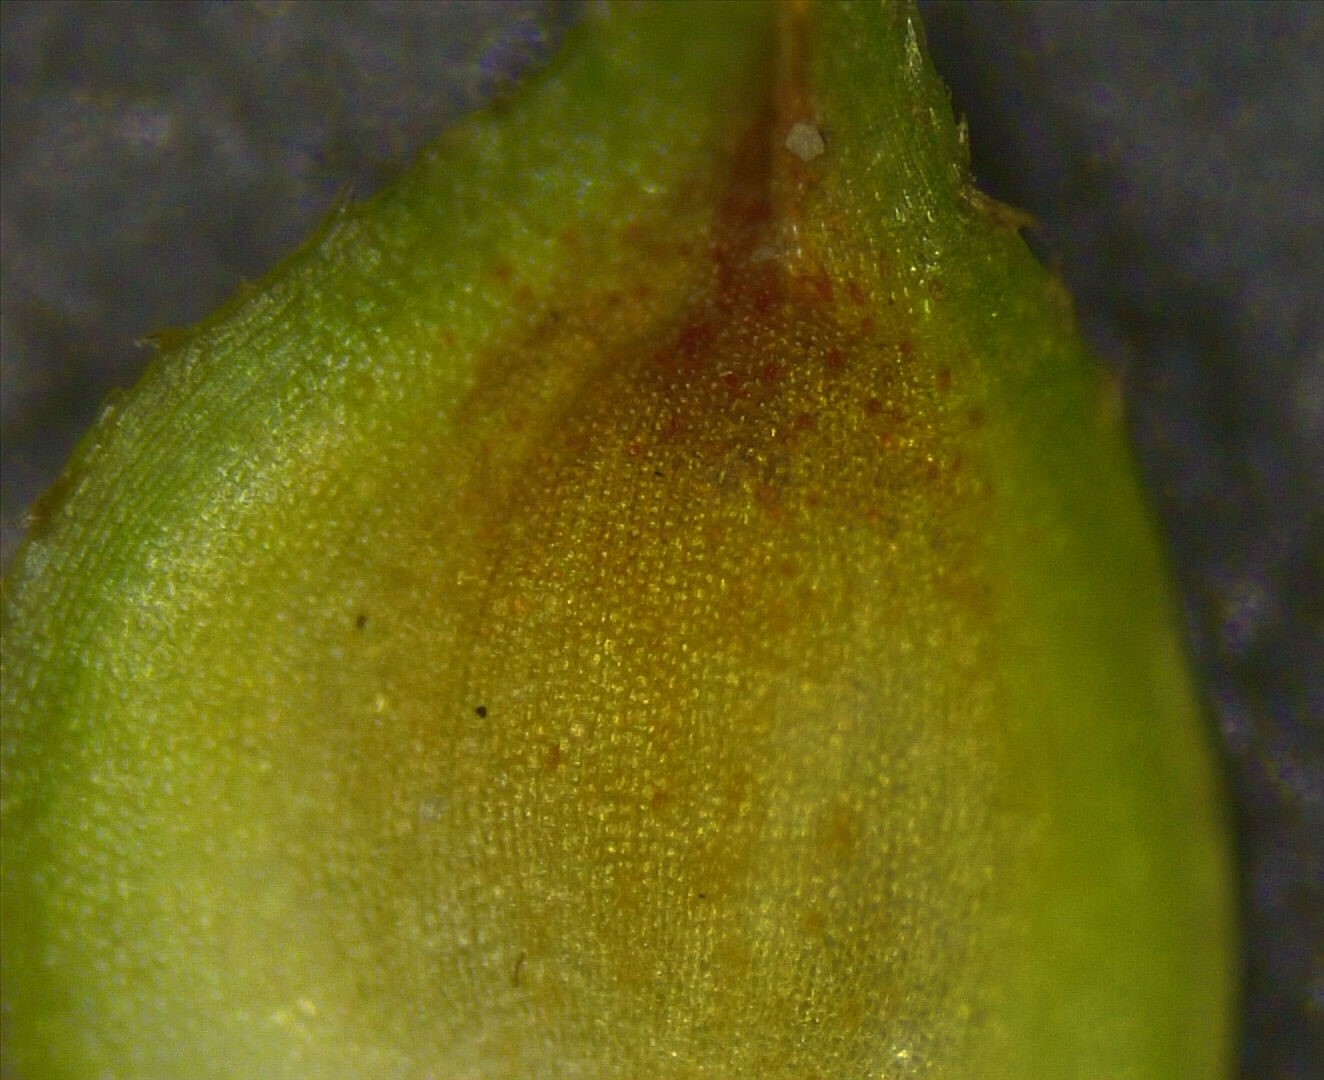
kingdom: Plantae
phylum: Tracheophyta
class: Liliopsida
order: Poales
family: Cyperaceae
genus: Carex
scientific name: Carex triangularis
